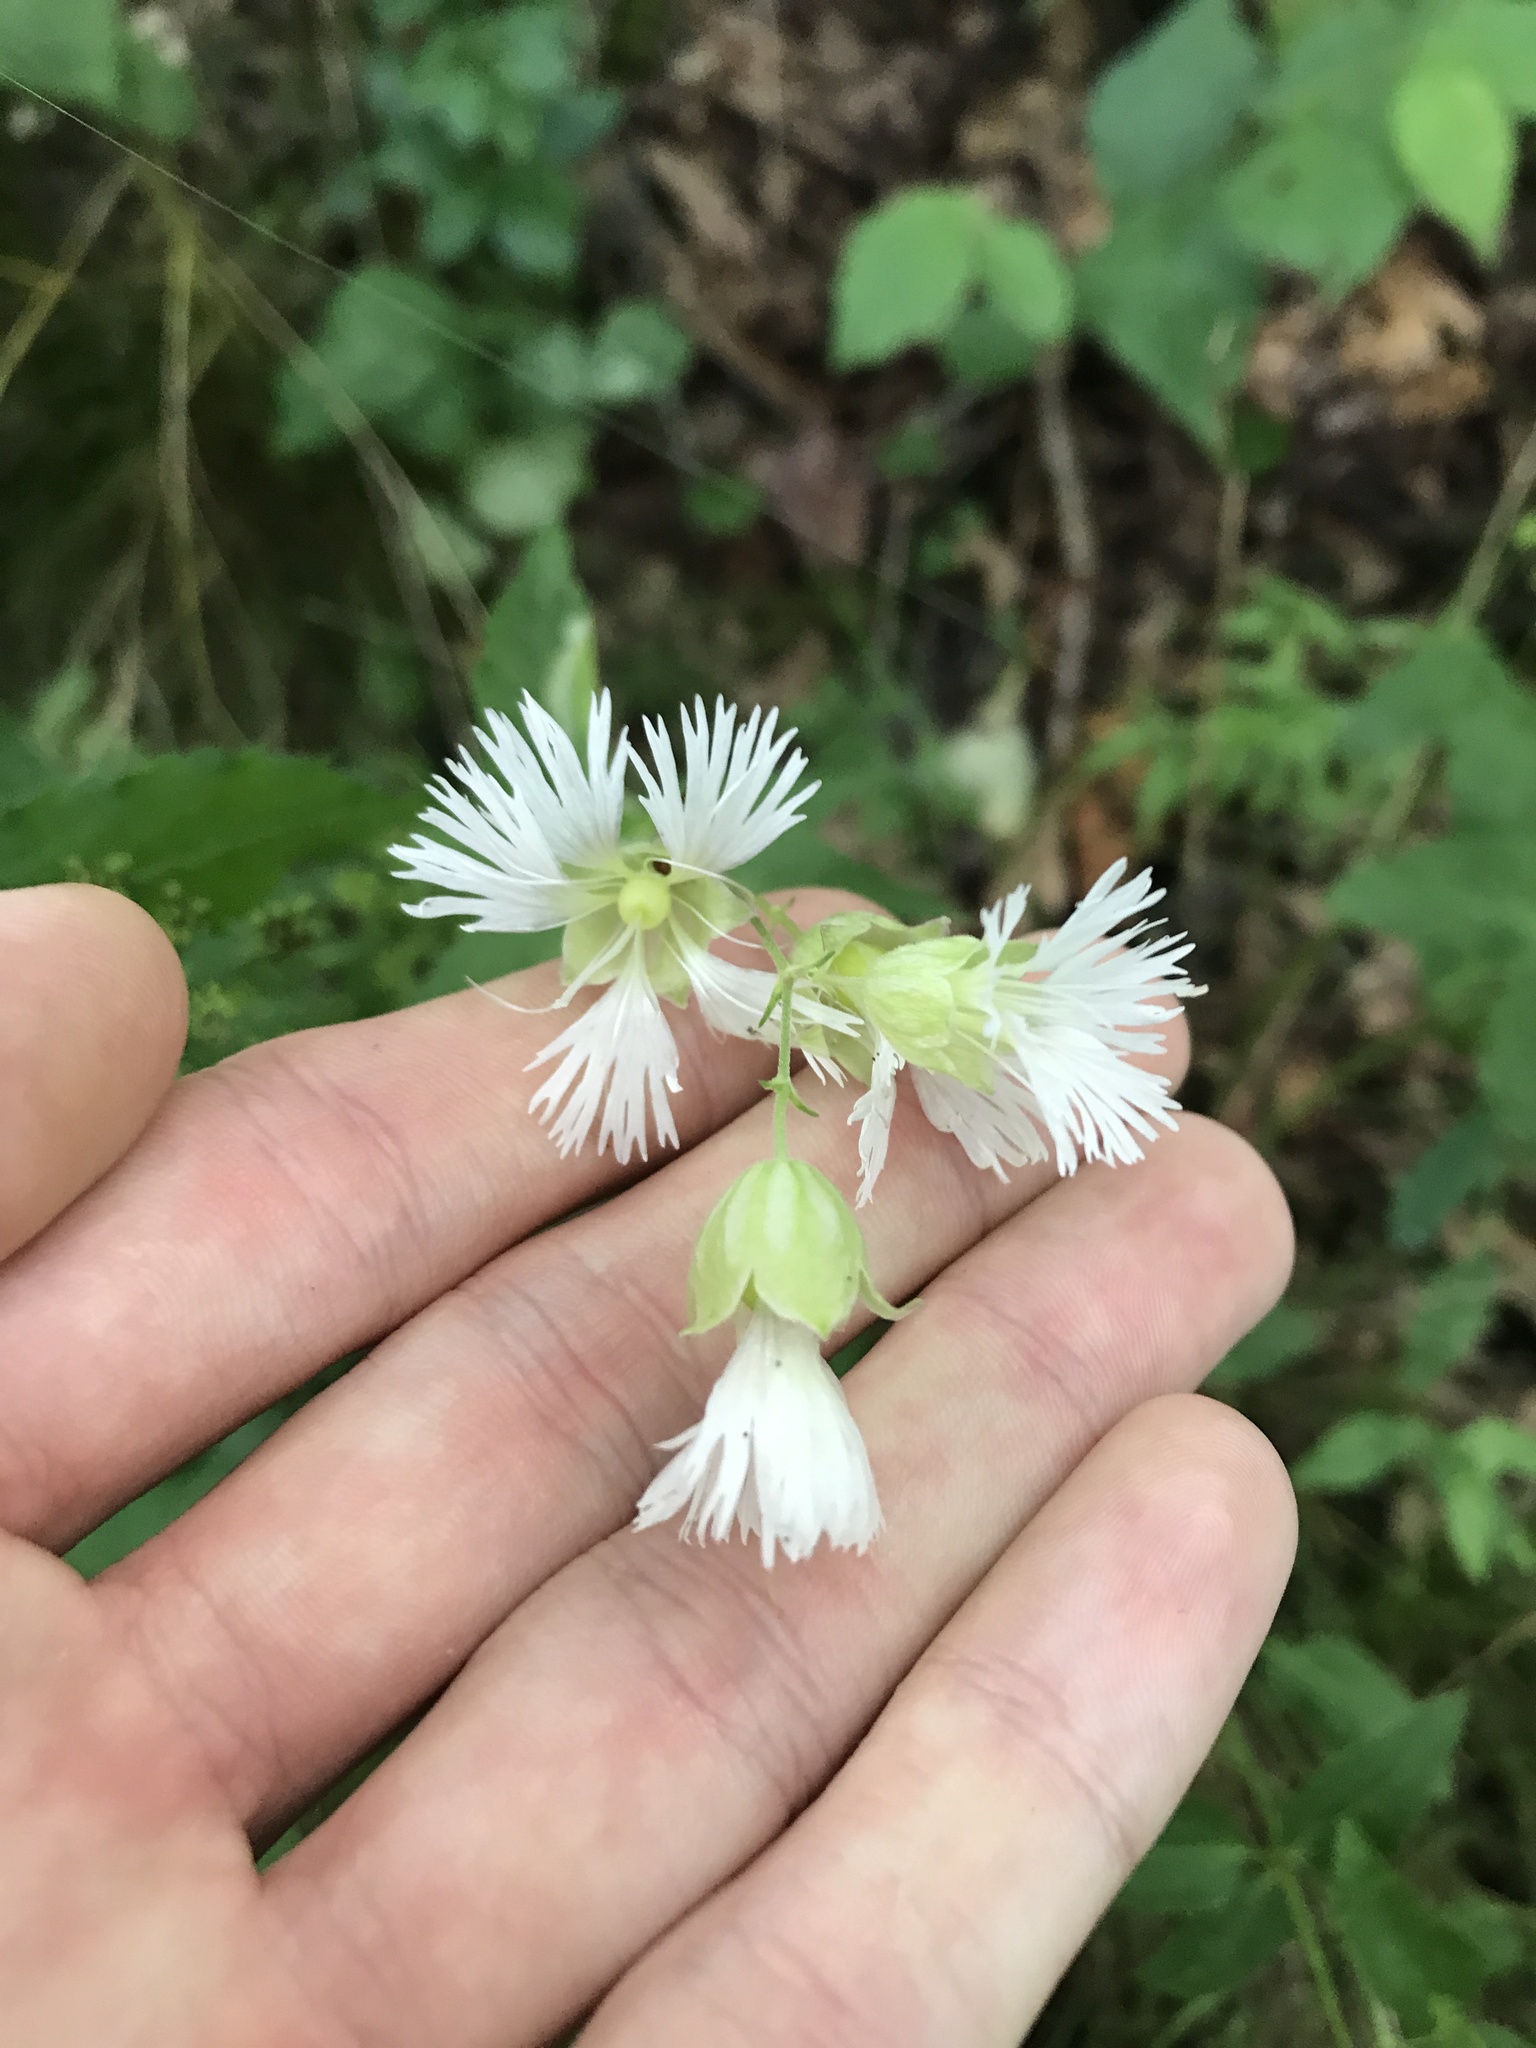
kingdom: Plantae
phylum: Tracheophyta
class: Magnoliopsida
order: Caryophyllales
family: Caryophyllaceae
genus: Silene
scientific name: Silene stellata
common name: Starry campion
